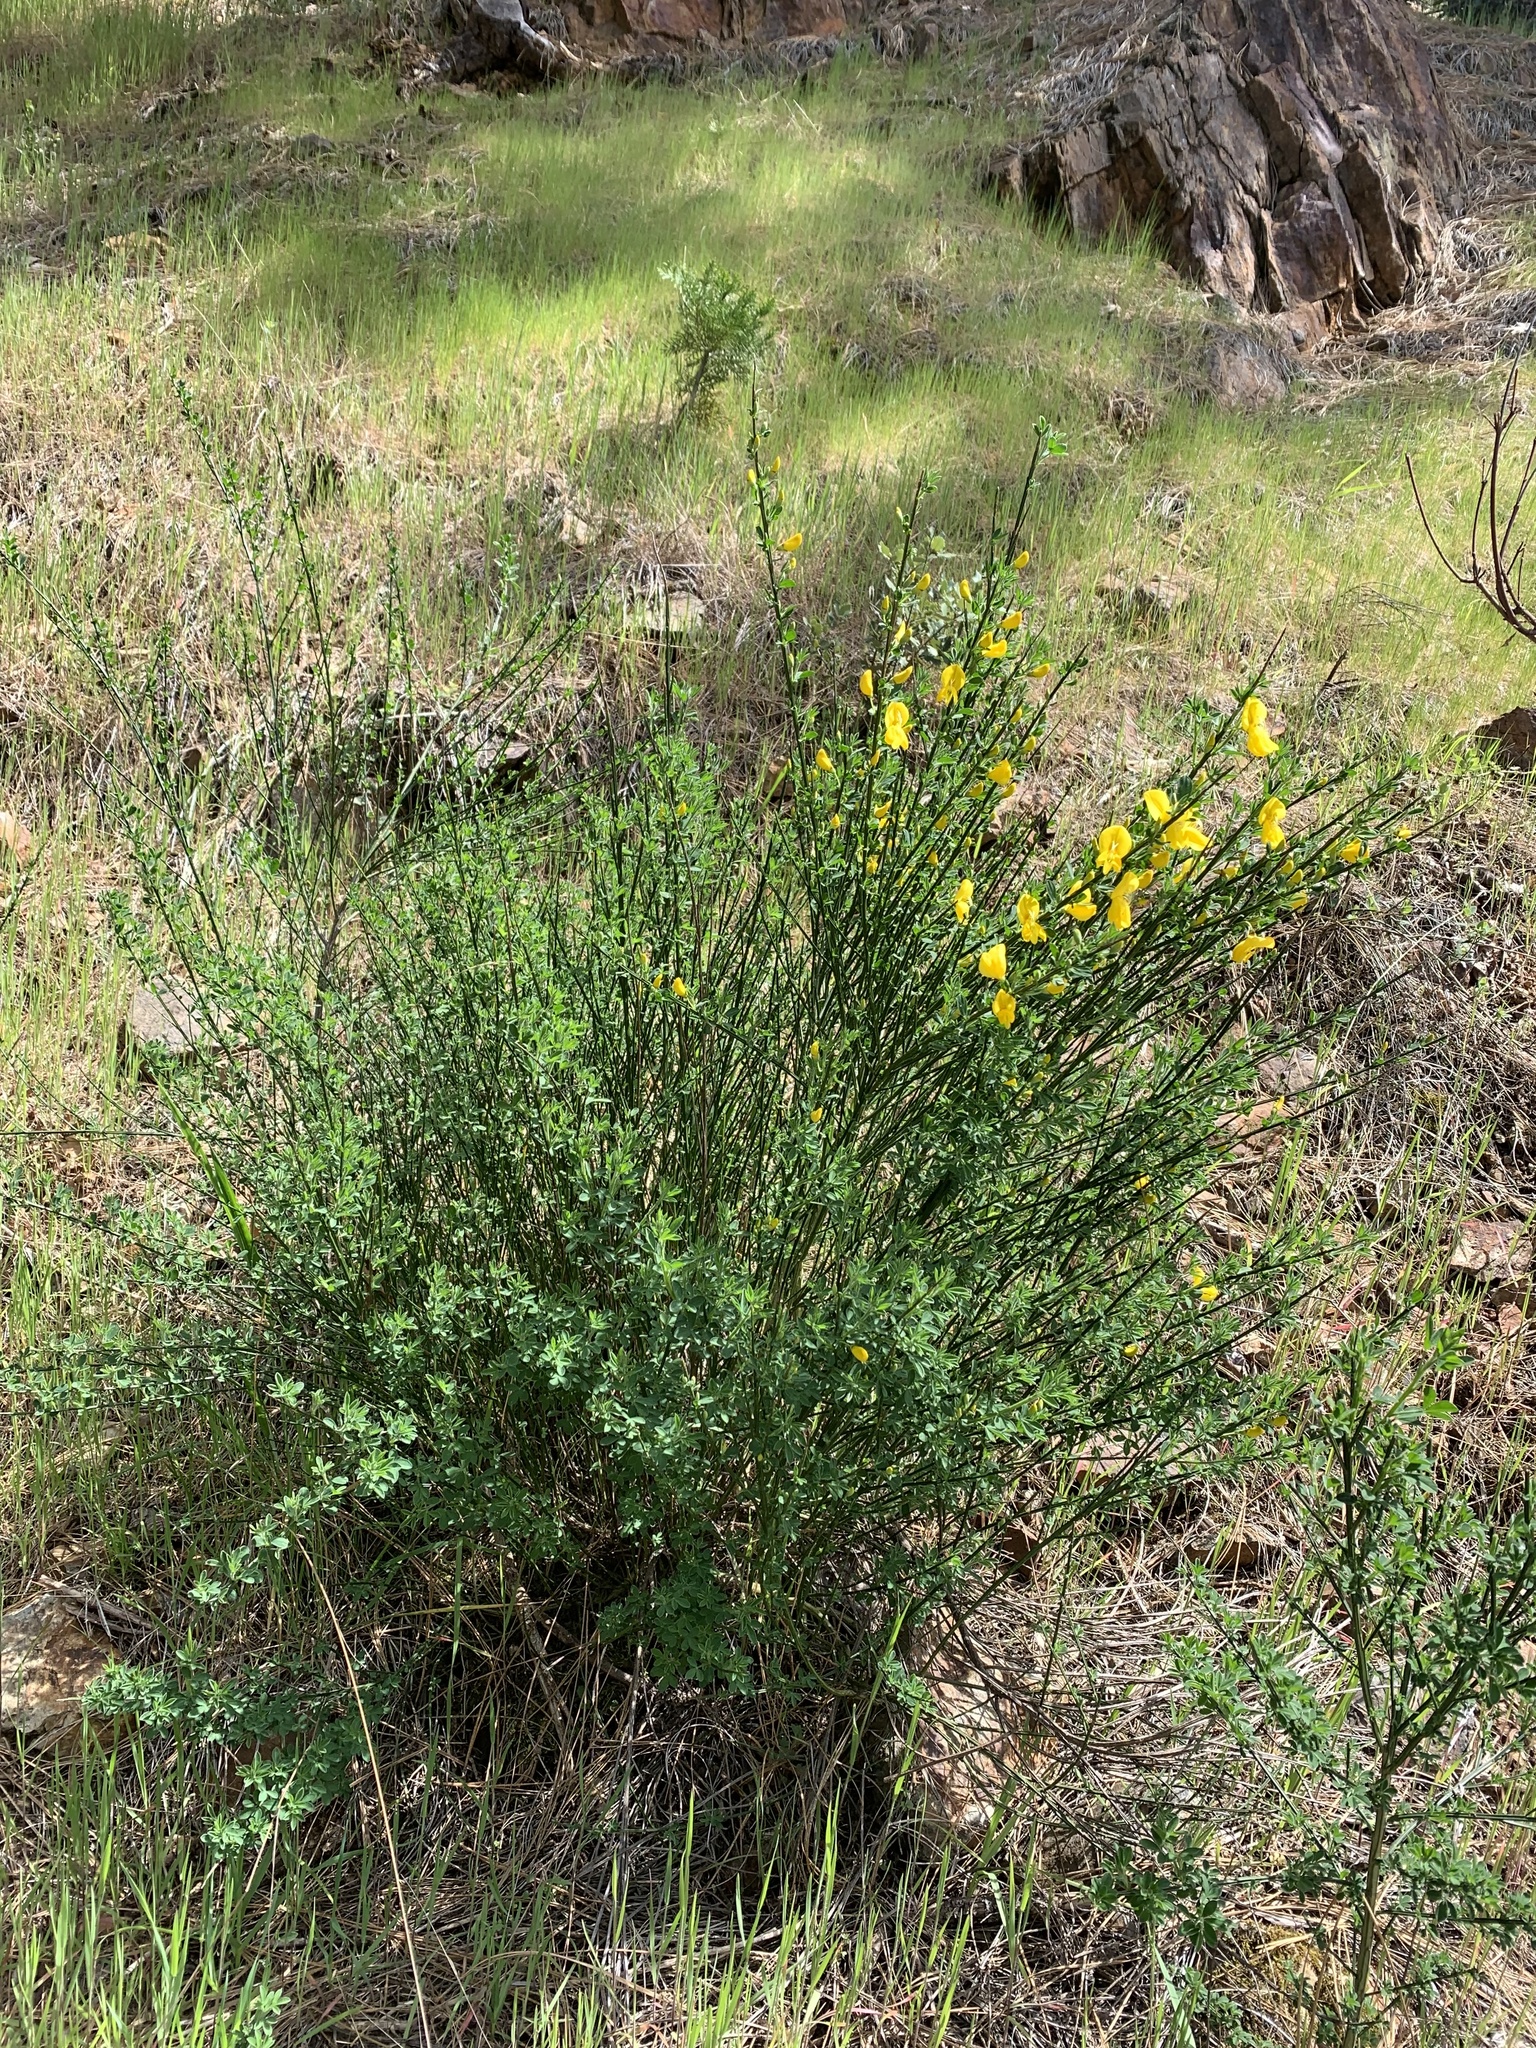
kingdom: Plantae
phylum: Tracheophyta
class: Magnoliopsida
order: Fabales
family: Fabaceae
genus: Cytisus
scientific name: Cytisus scoparius
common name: Scotch broom
